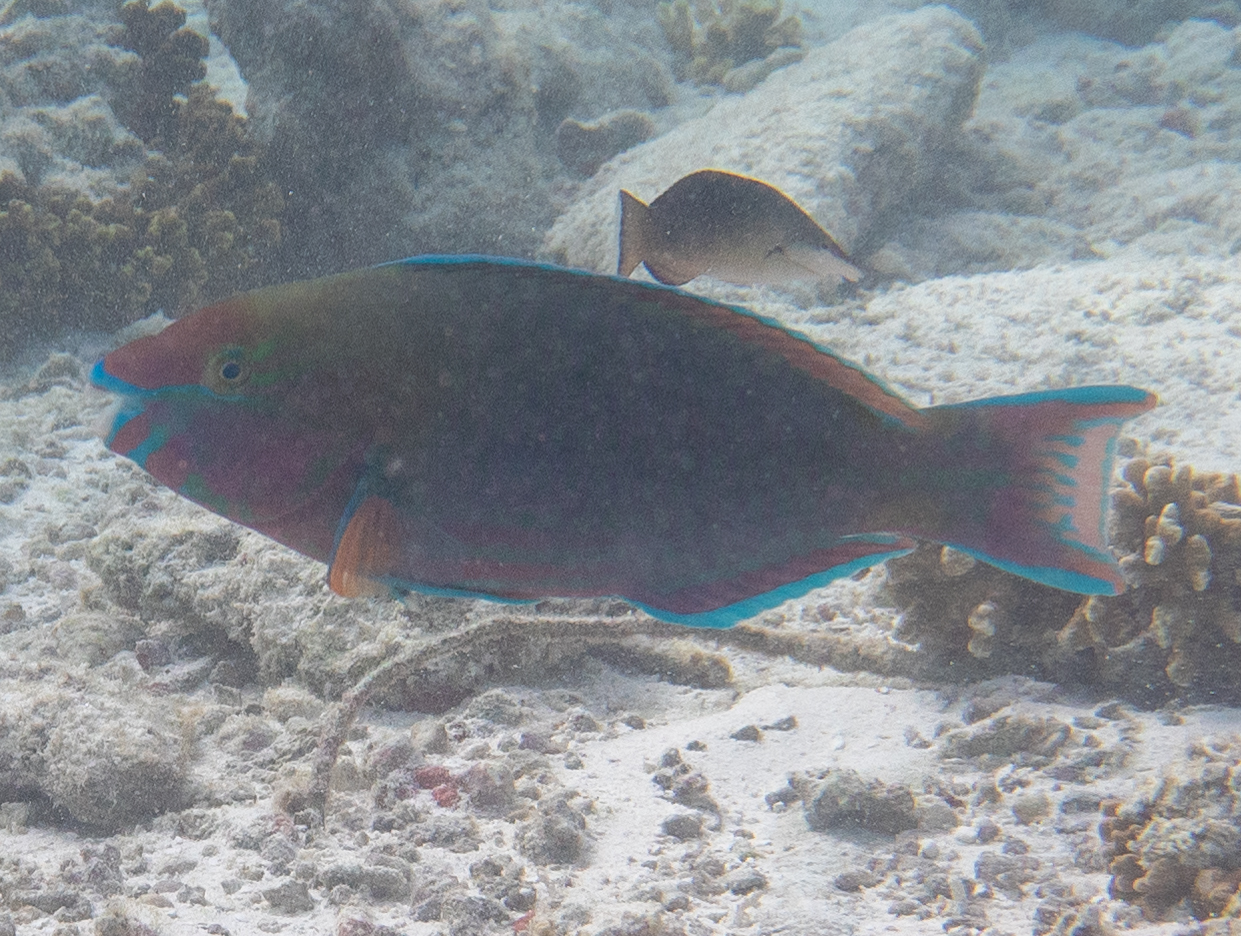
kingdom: Animalia
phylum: Chordata
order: Perciformes
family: Scaridae
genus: Scarus
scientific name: Scarus psittacus
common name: Palenose parrotfish
